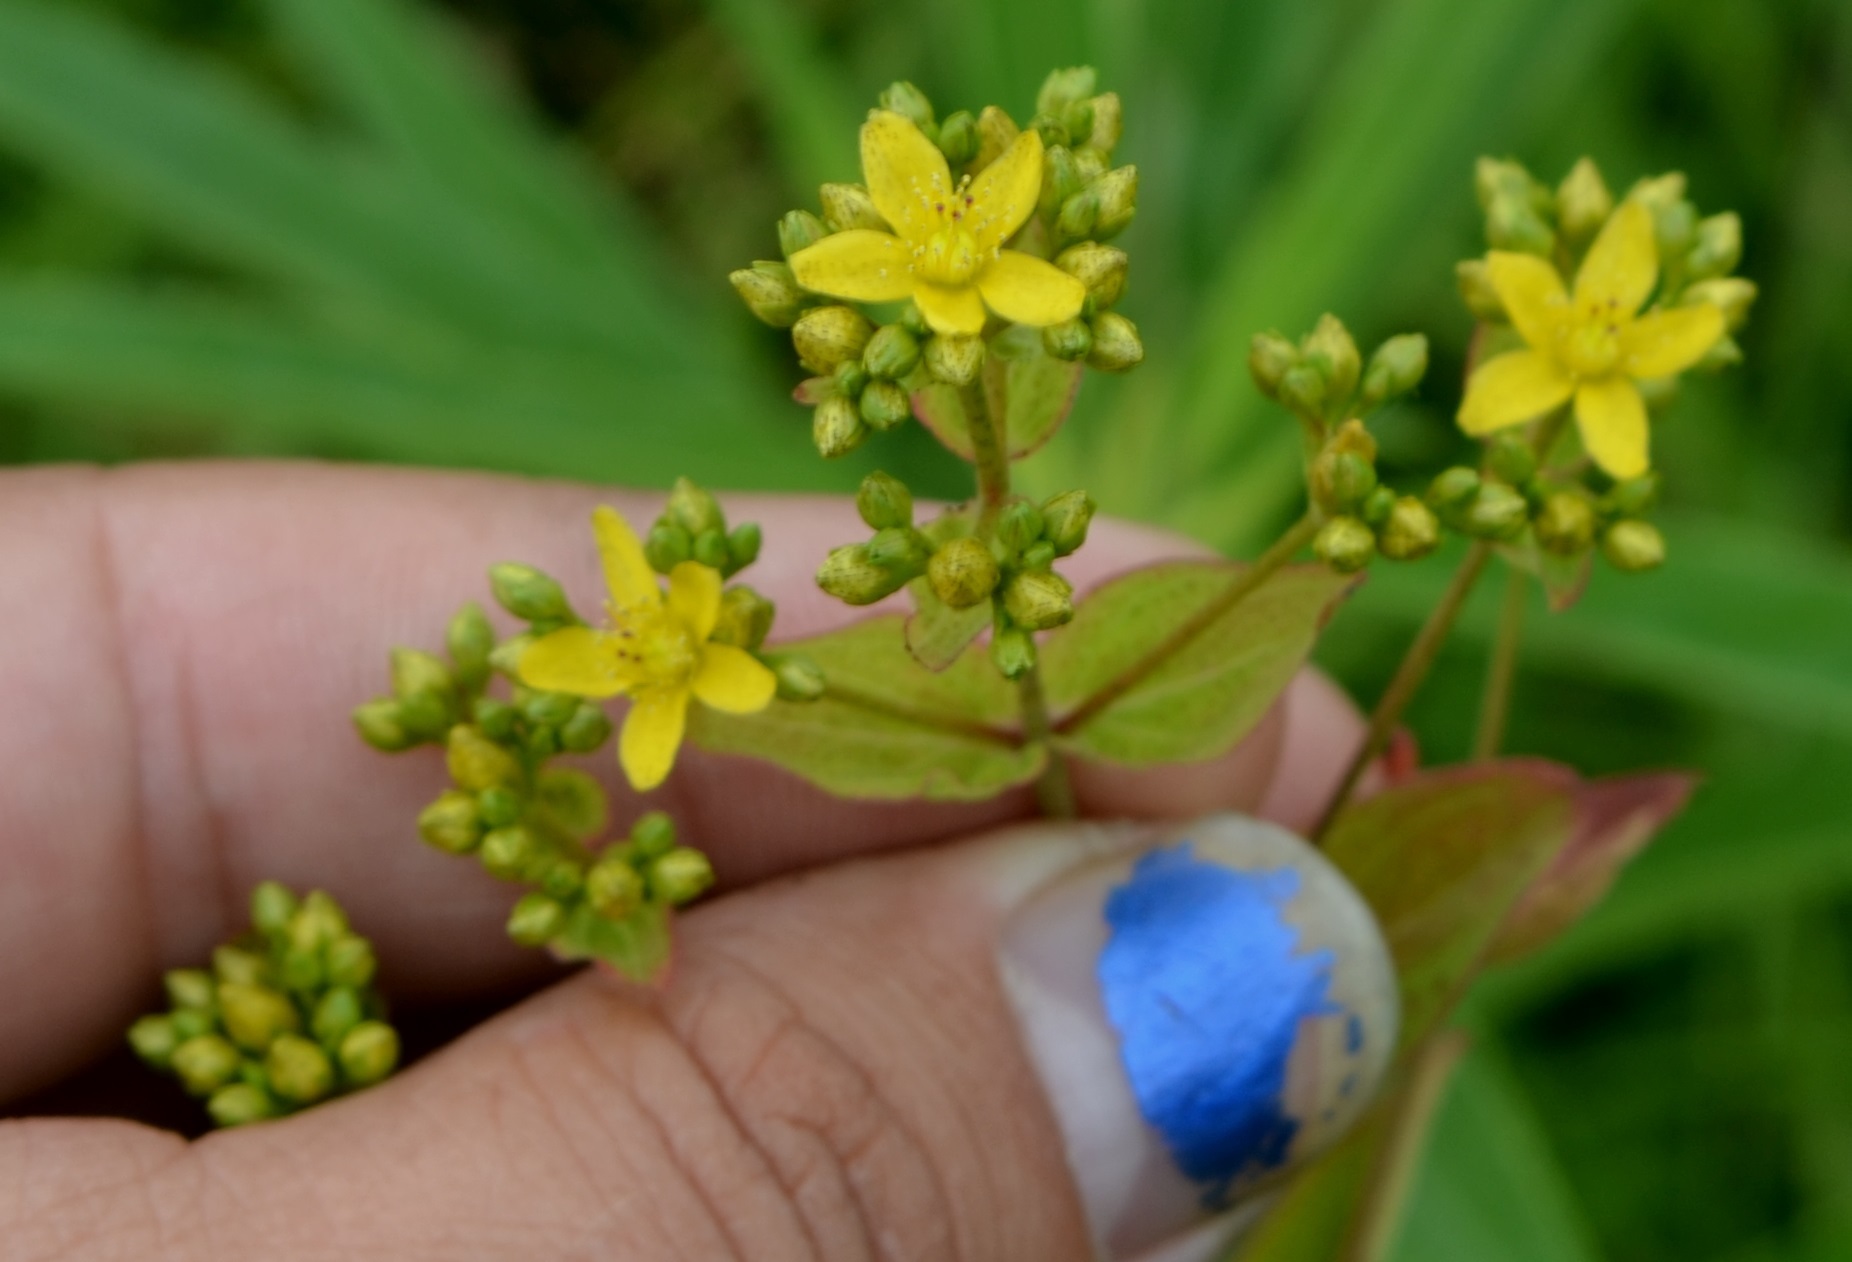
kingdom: Plantae
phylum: Tracheophyta
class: Magnoliopsida
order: Malpighiales
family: Hypericaceae
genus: Hypericum
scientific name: Hypericum punctatum
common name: Spotted st. john's-wort
